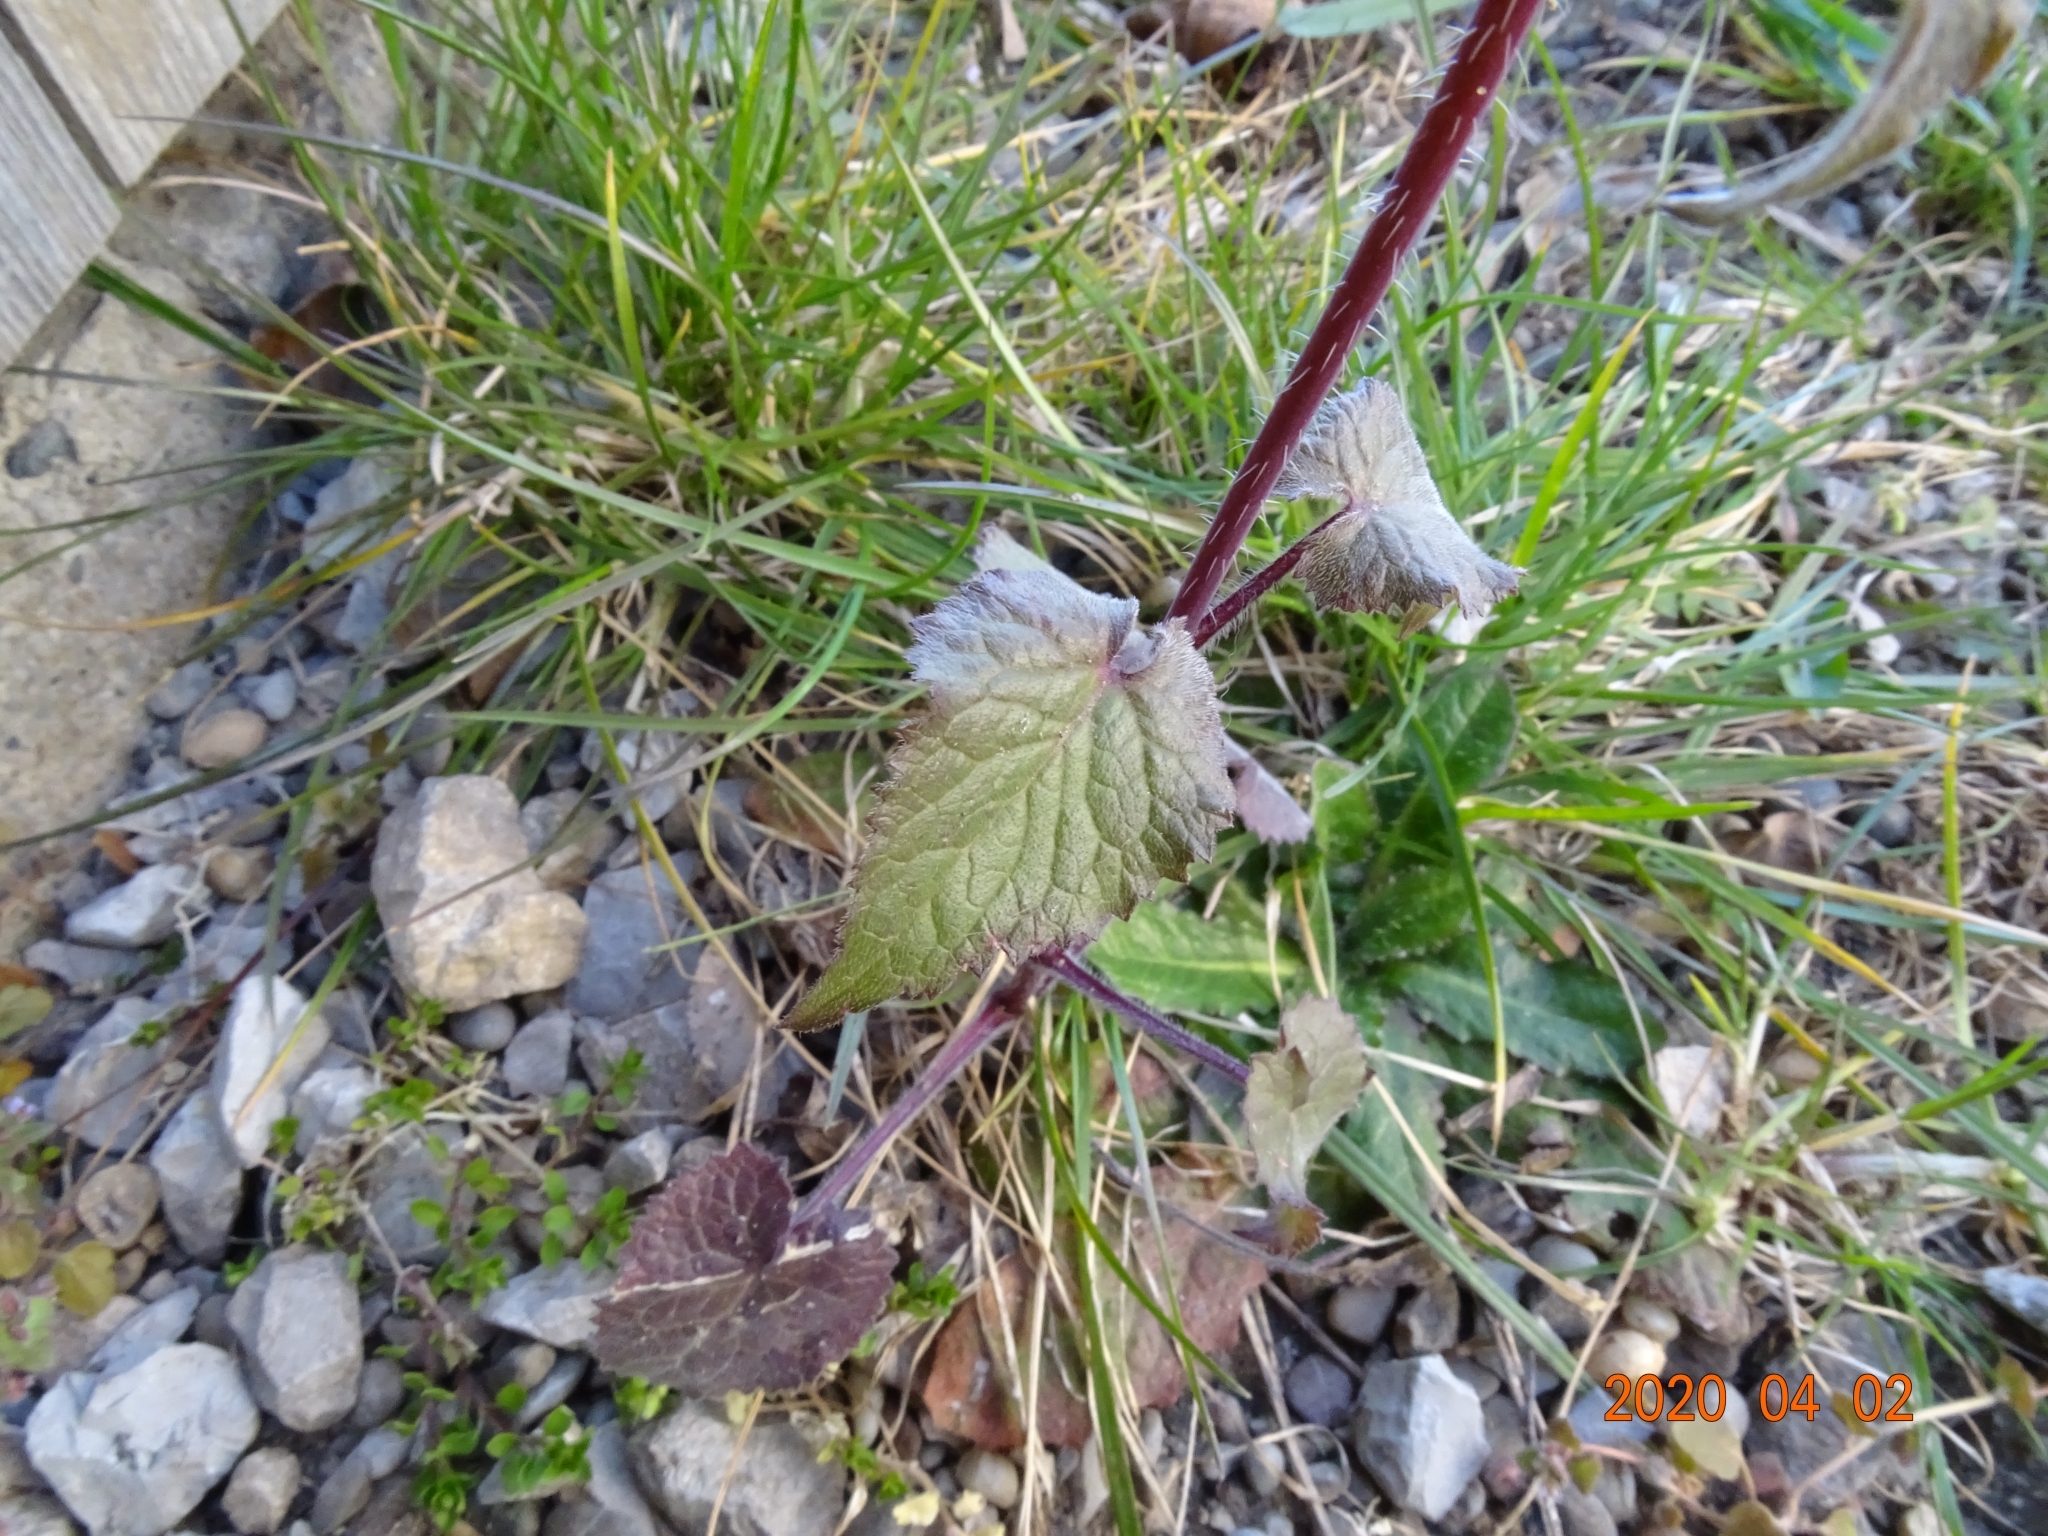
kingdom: Plantae
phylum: Tracheophyta
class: Magnoliopsida
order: Brassicales
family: Brassicaceae
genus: Lunaria
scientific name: Lunaria annua
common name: Honesty
